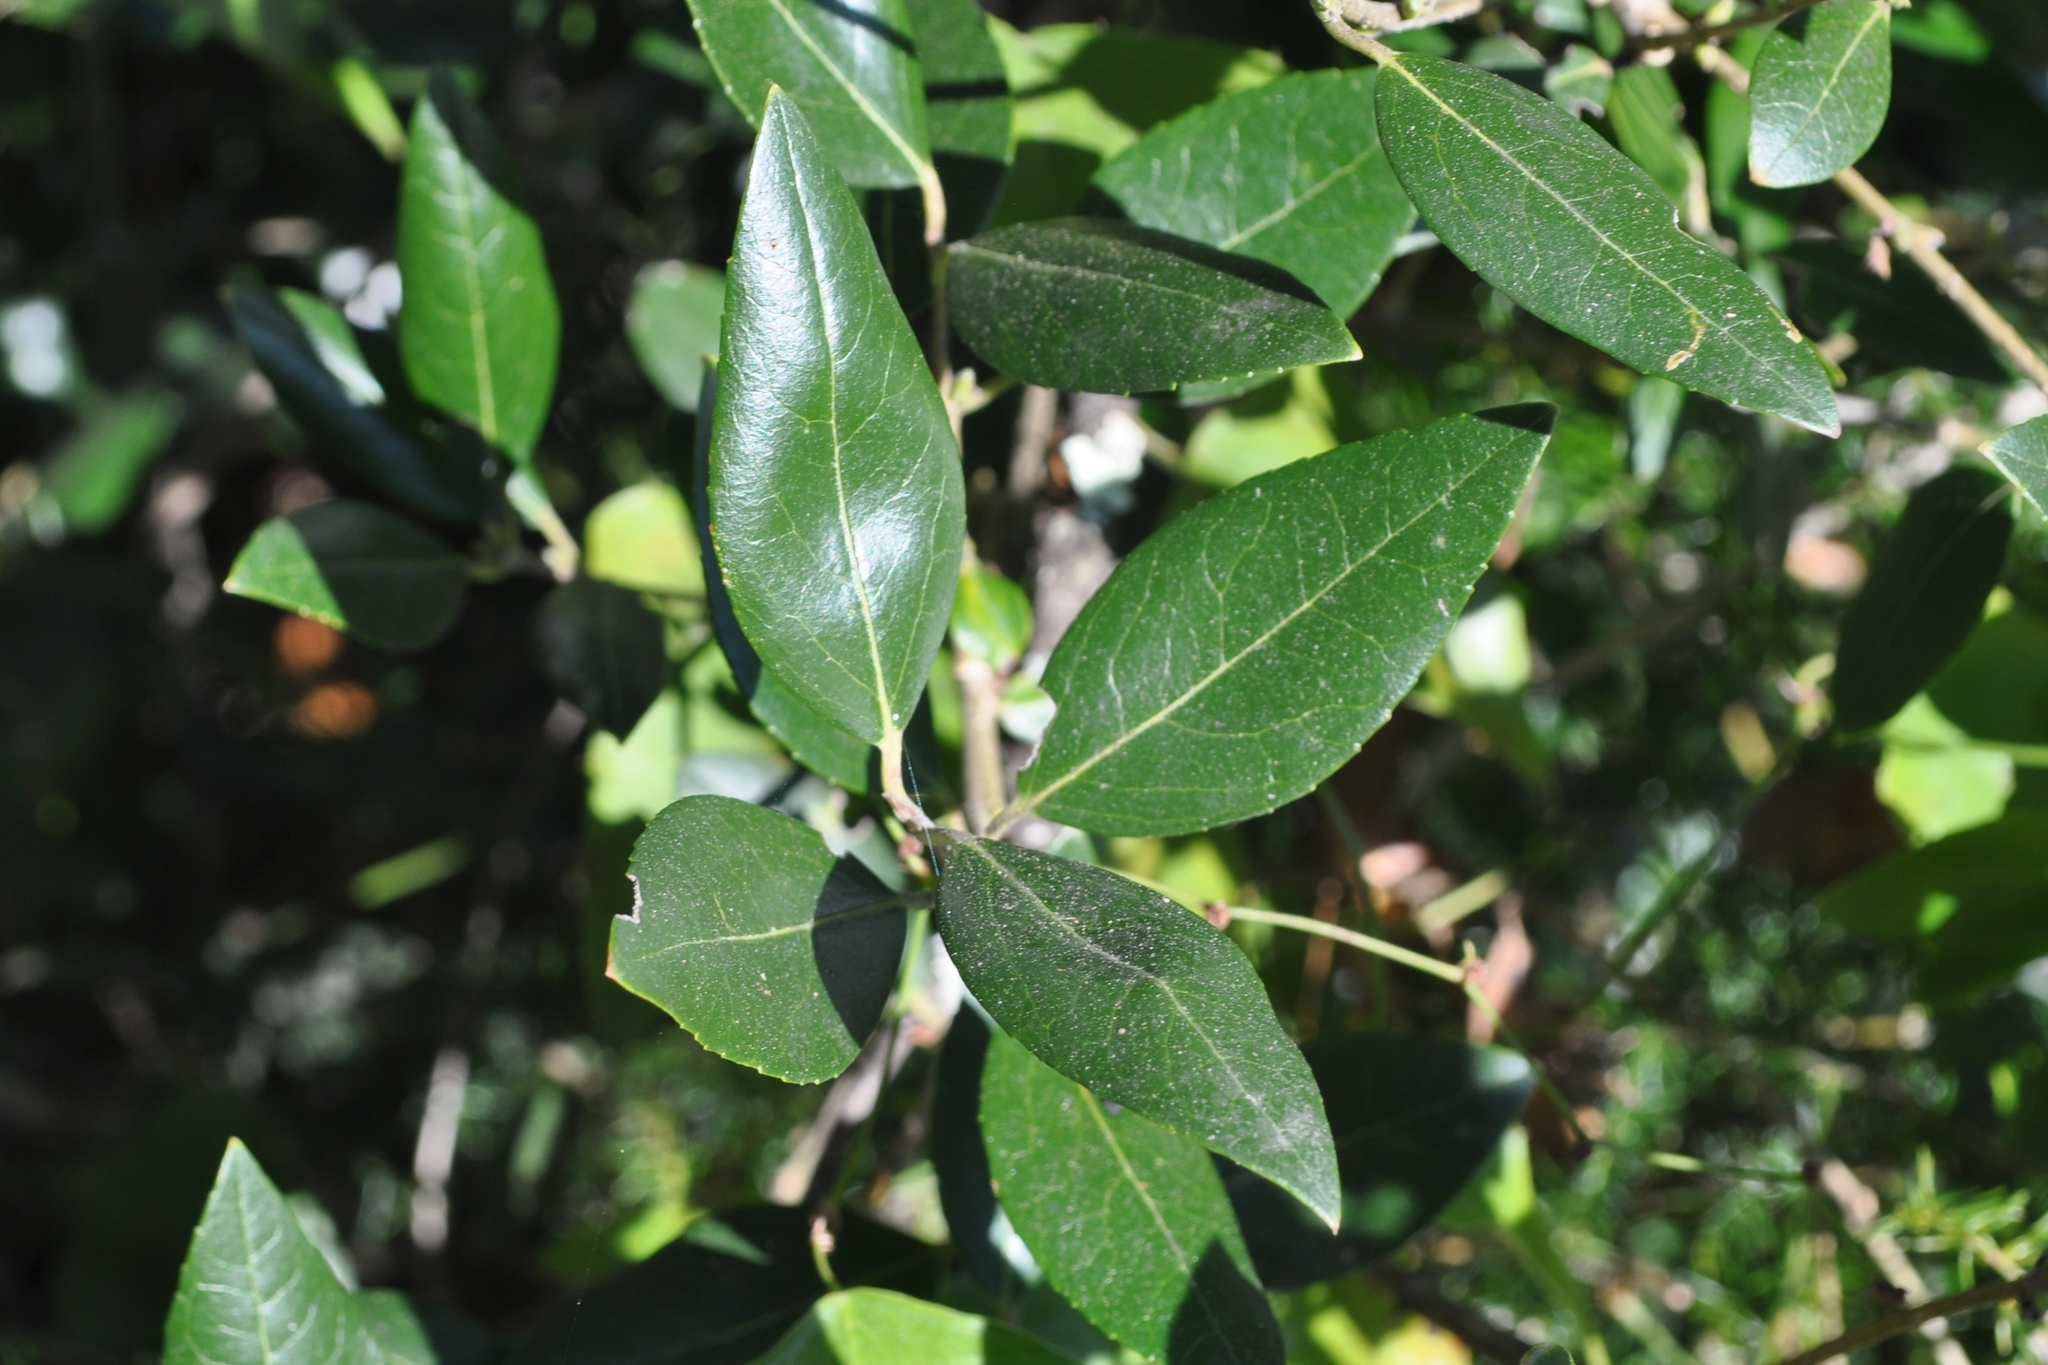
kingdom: Plantae
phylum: Tracheophyta
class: Magnoliopsida
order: Lamiales
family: Oleaceae
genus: Phillyrea
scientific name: Phillyrea latifolia
